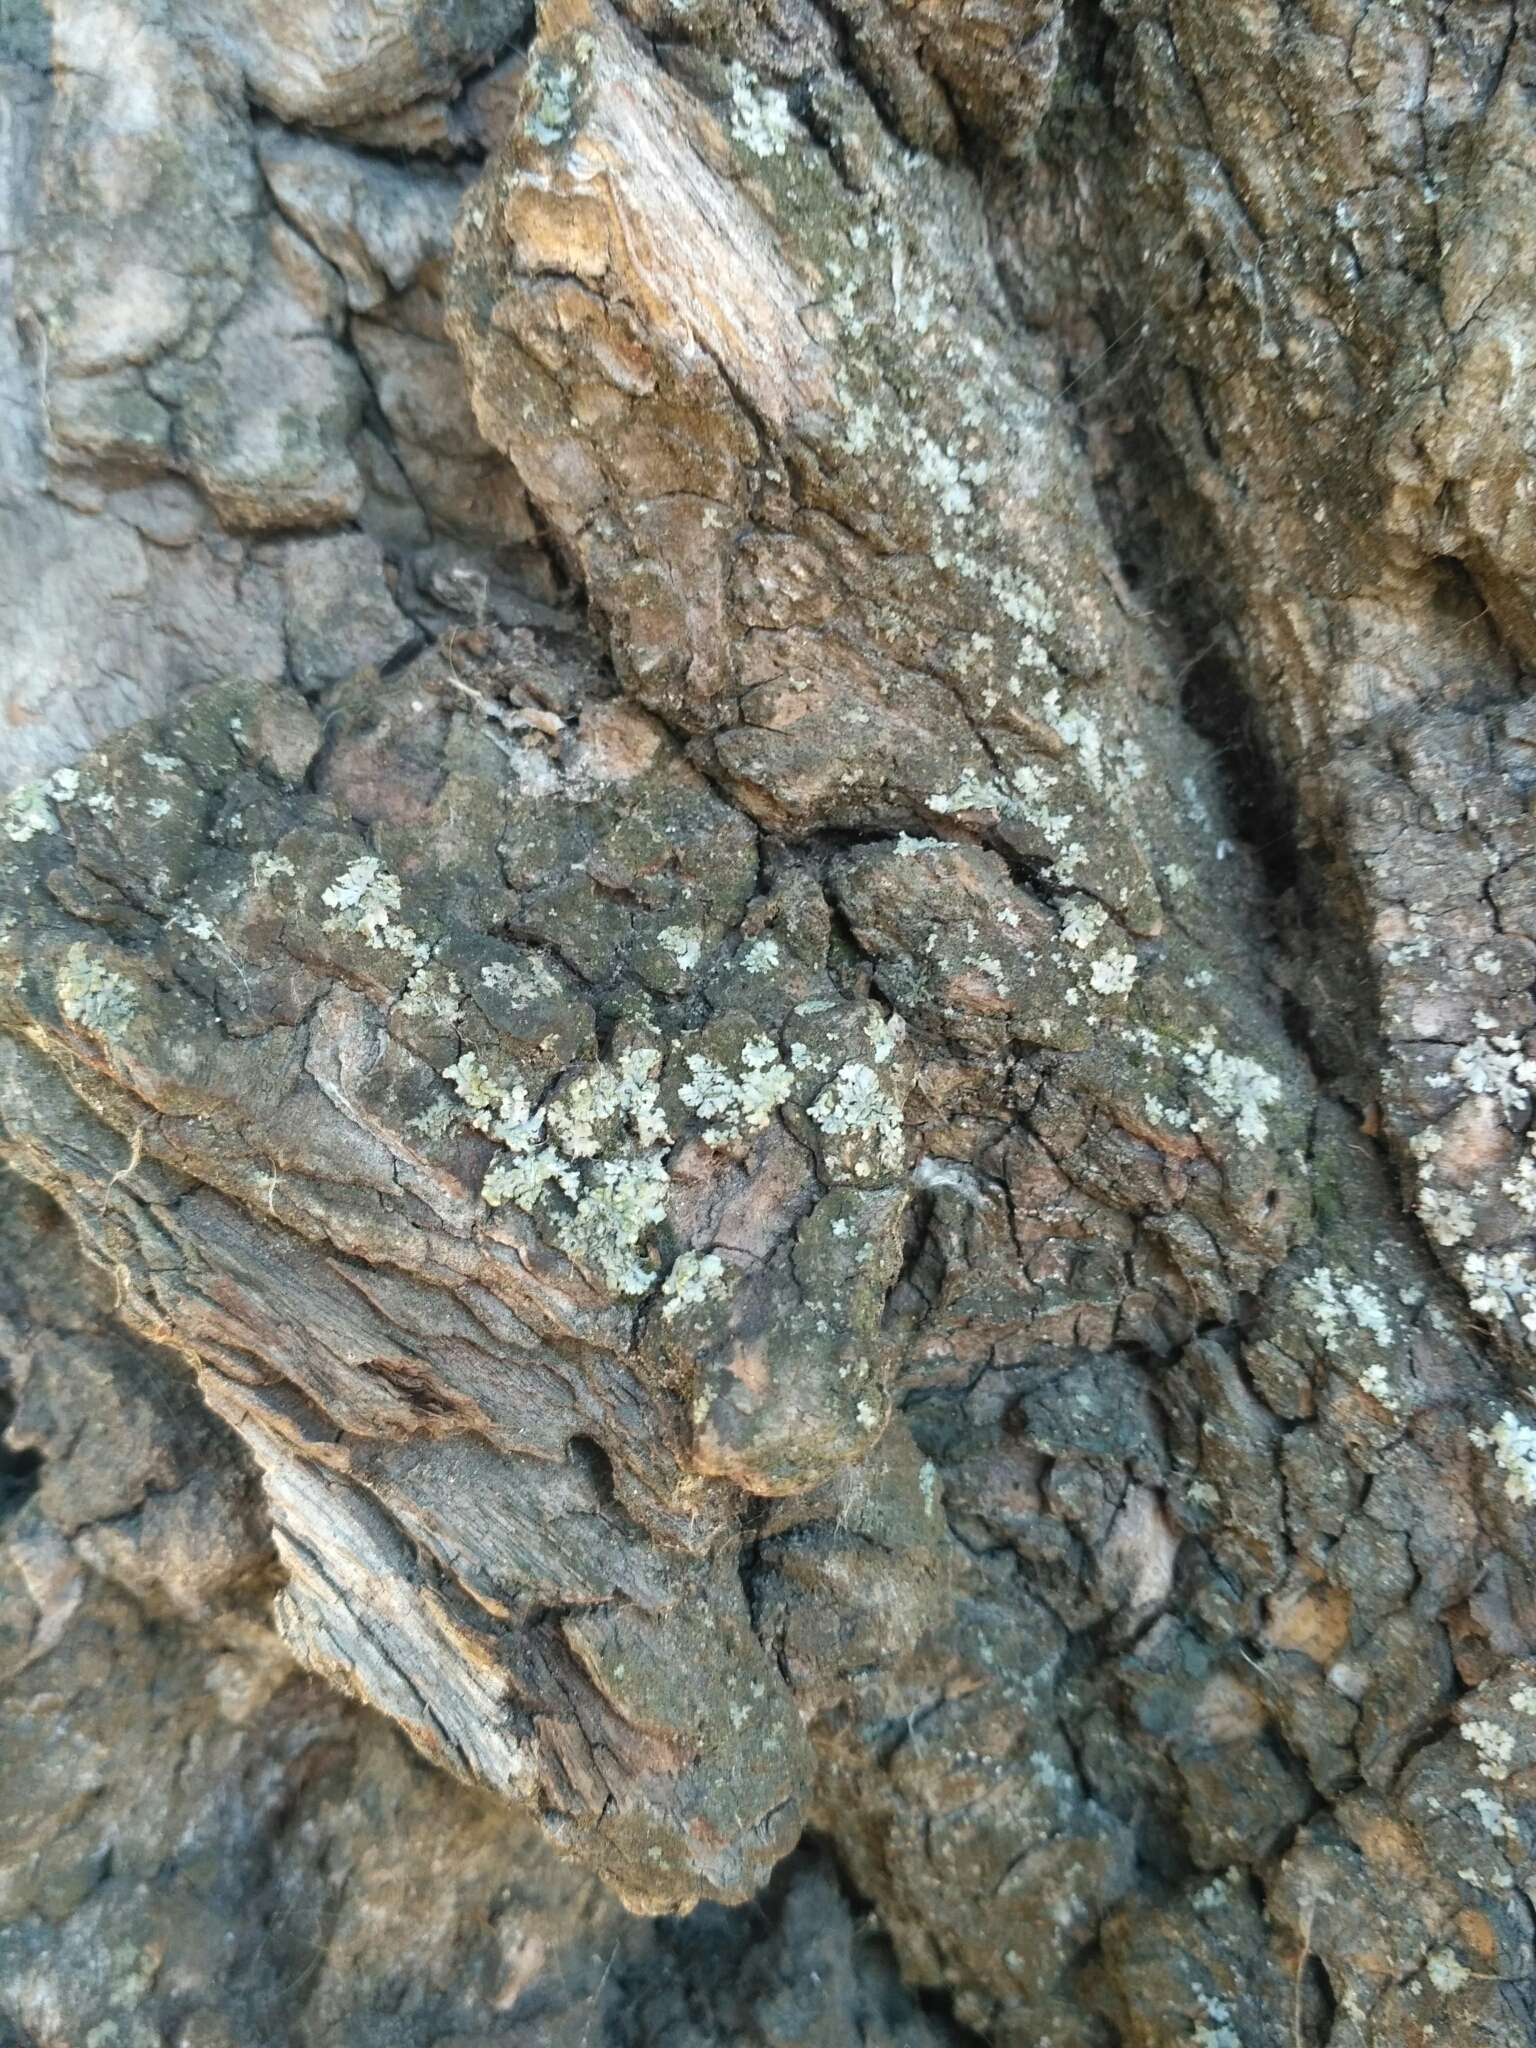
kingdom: Fungi
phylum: Ascomycota
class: Lecanoromycetes
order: Caliciales
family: Physciaceae
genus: Phaeophyscia
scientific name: Phaeophyscia orbicularis
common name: Mealy shadow lichen
